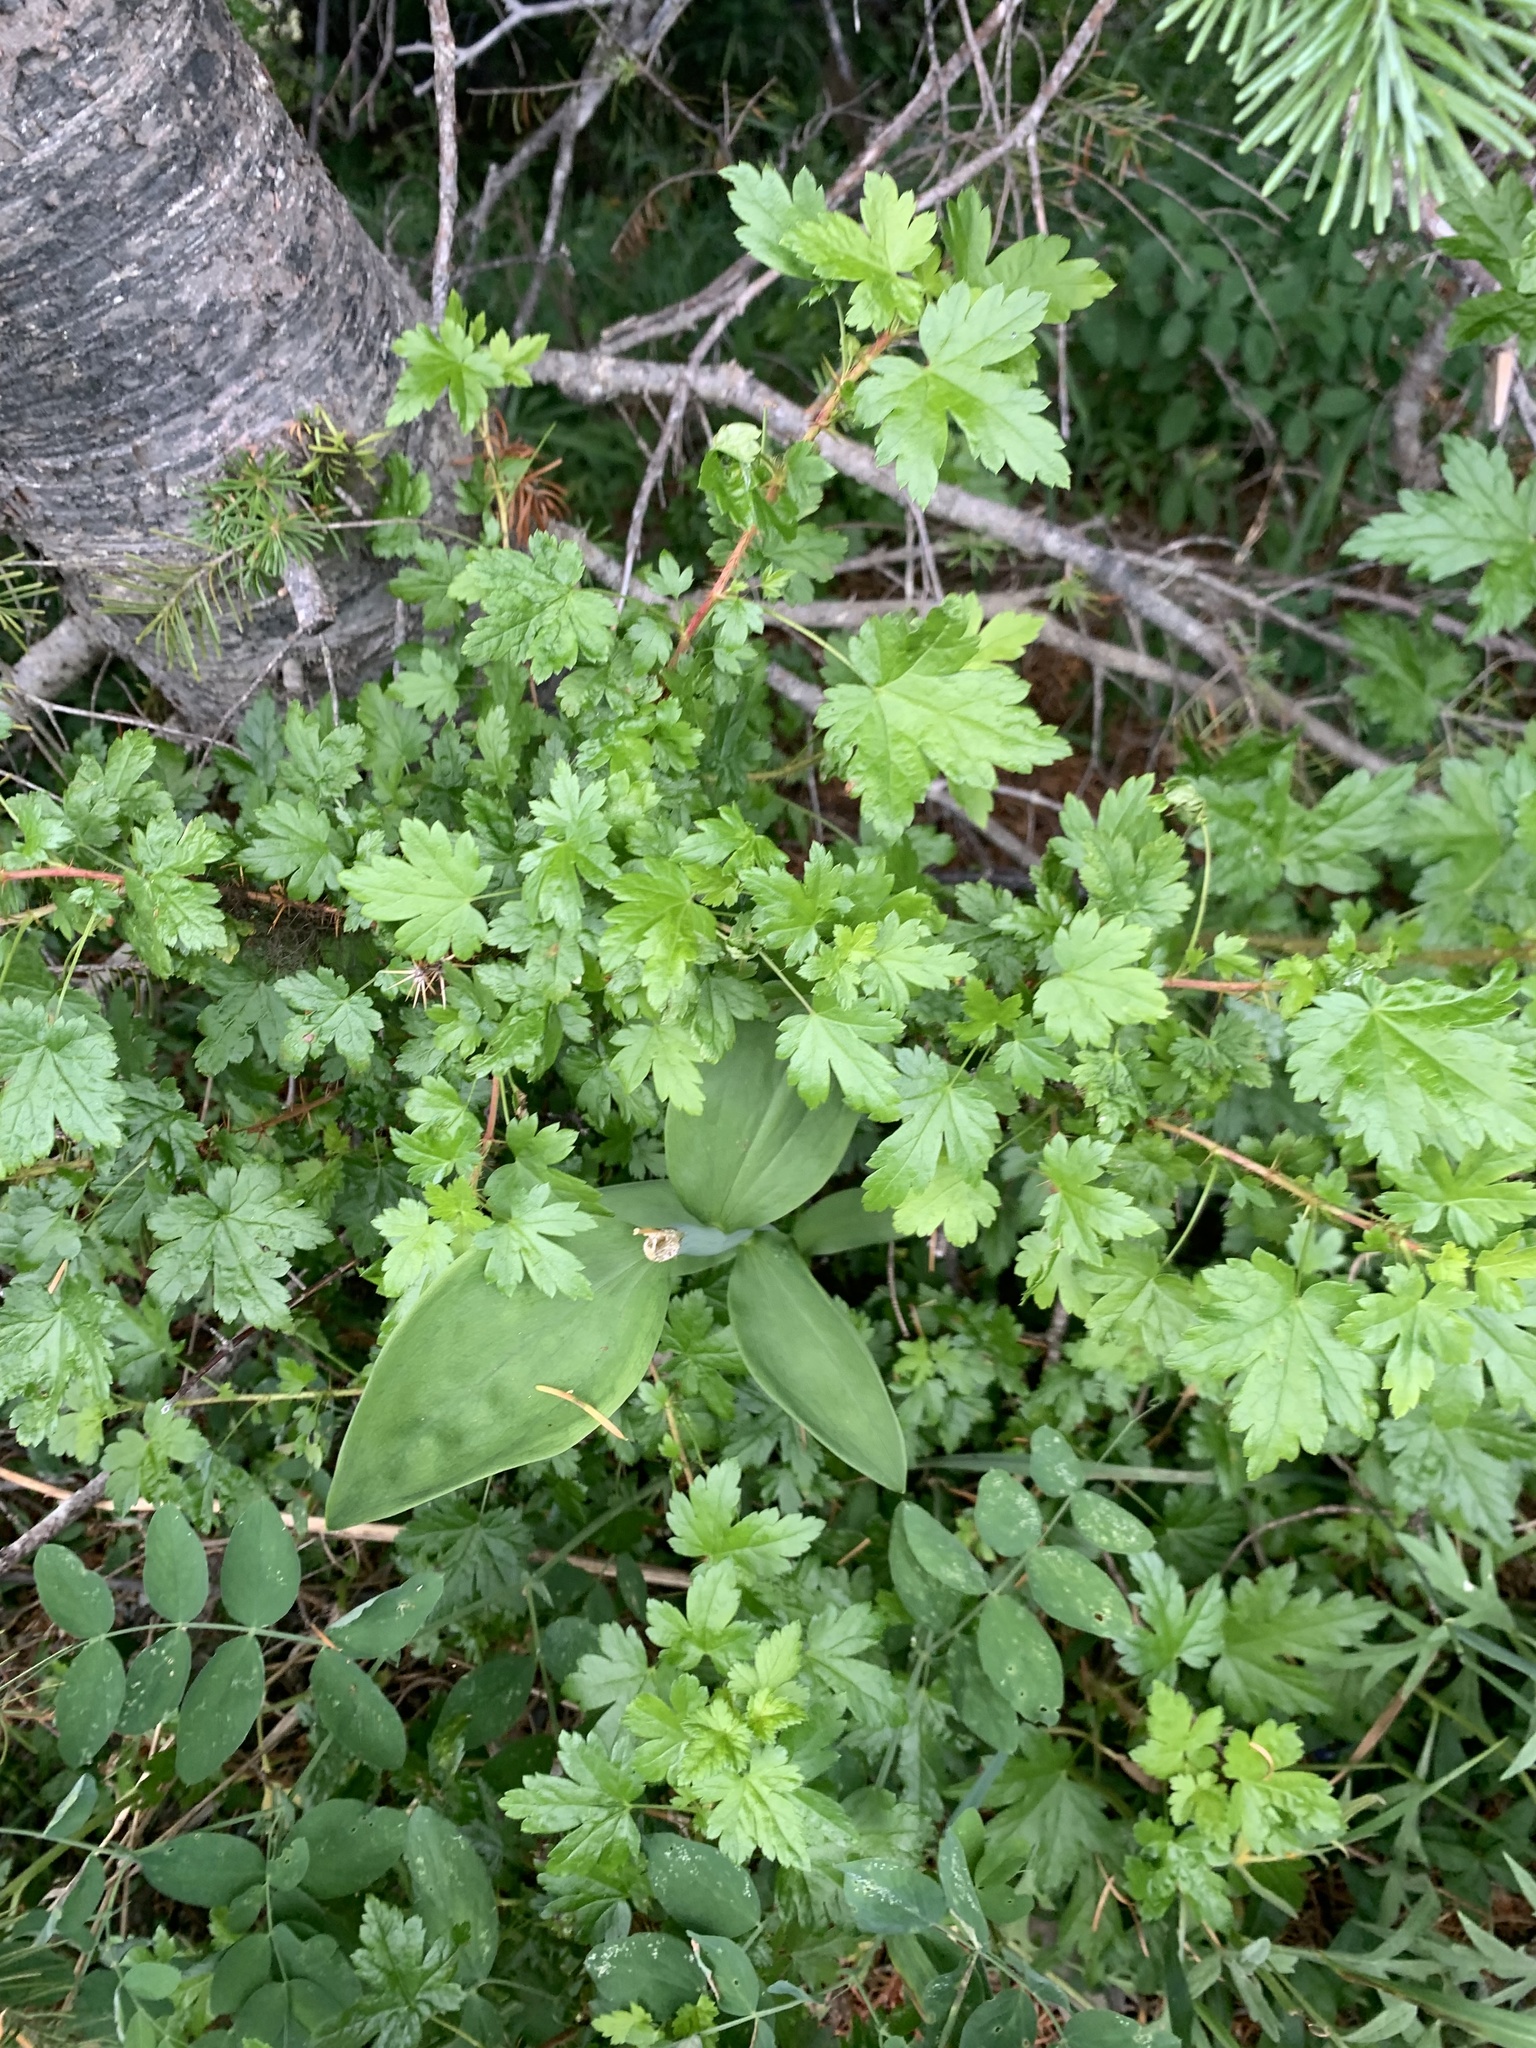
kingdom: Plantae
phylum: Tracheophyta
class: Magnoliopsida
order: Saxifragales
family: Grossulariaceae
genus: Ribes
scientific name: Ribes lacustre
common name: Black gooseberry
